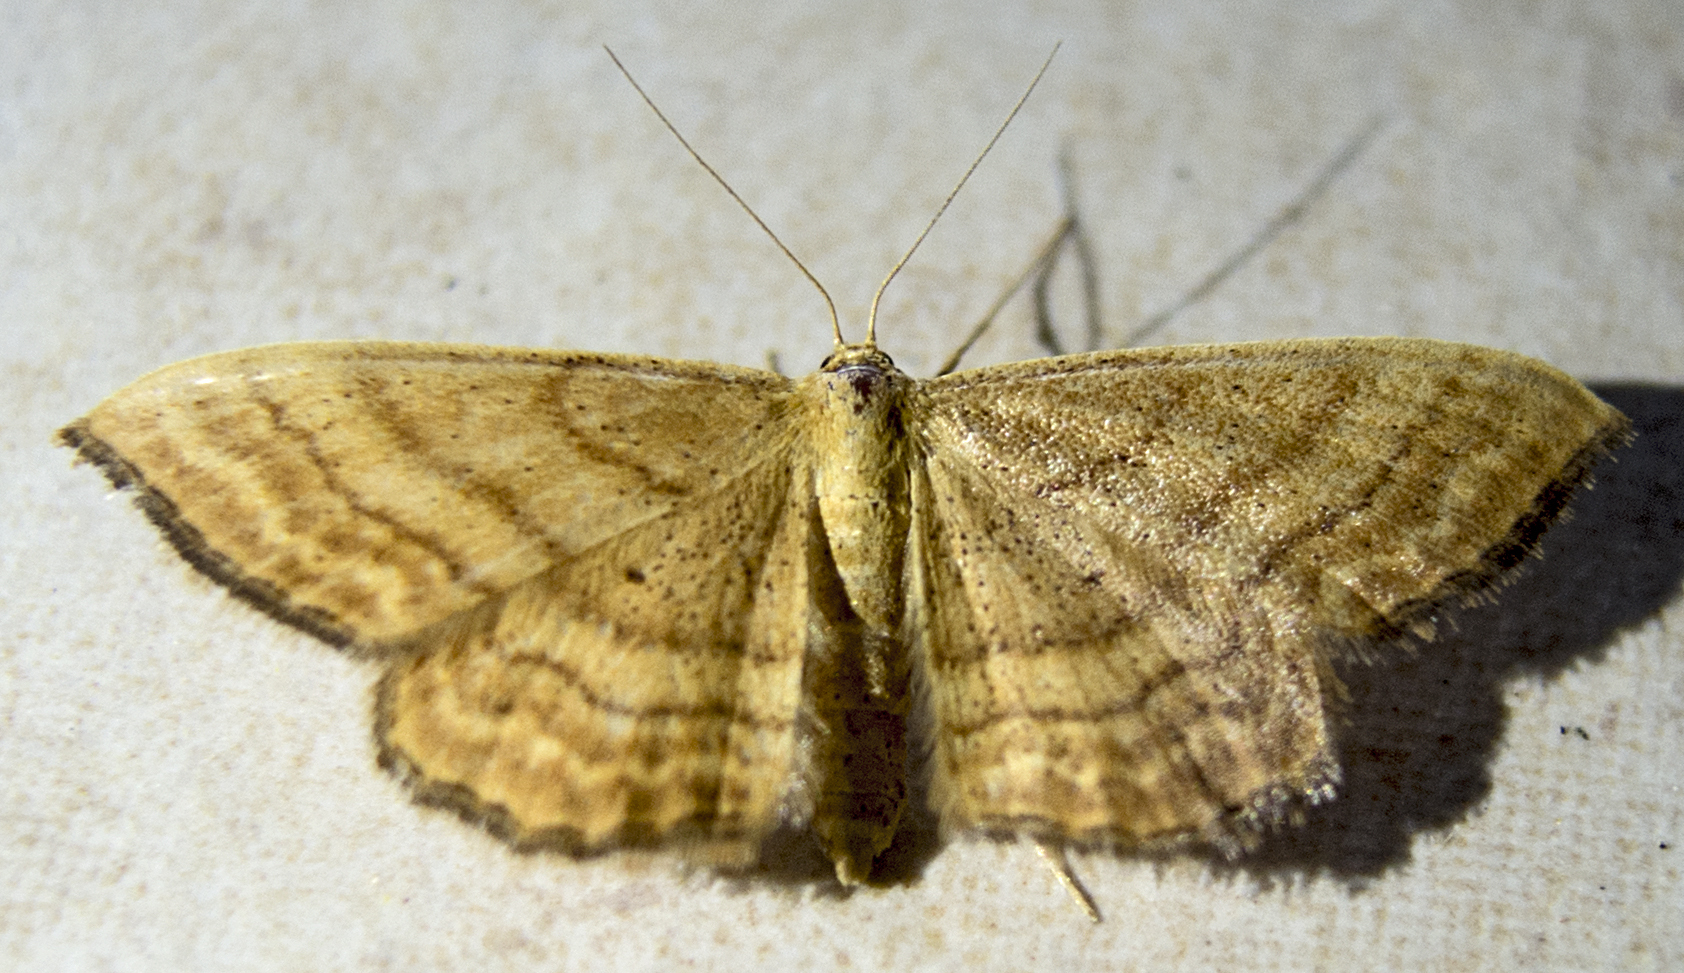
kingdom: Animalia
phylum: Arthropoda
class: Insecta
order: Lepidoptera
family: Geometridae
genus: Idaea
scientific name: Idaea ochrata
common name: Bright wave
